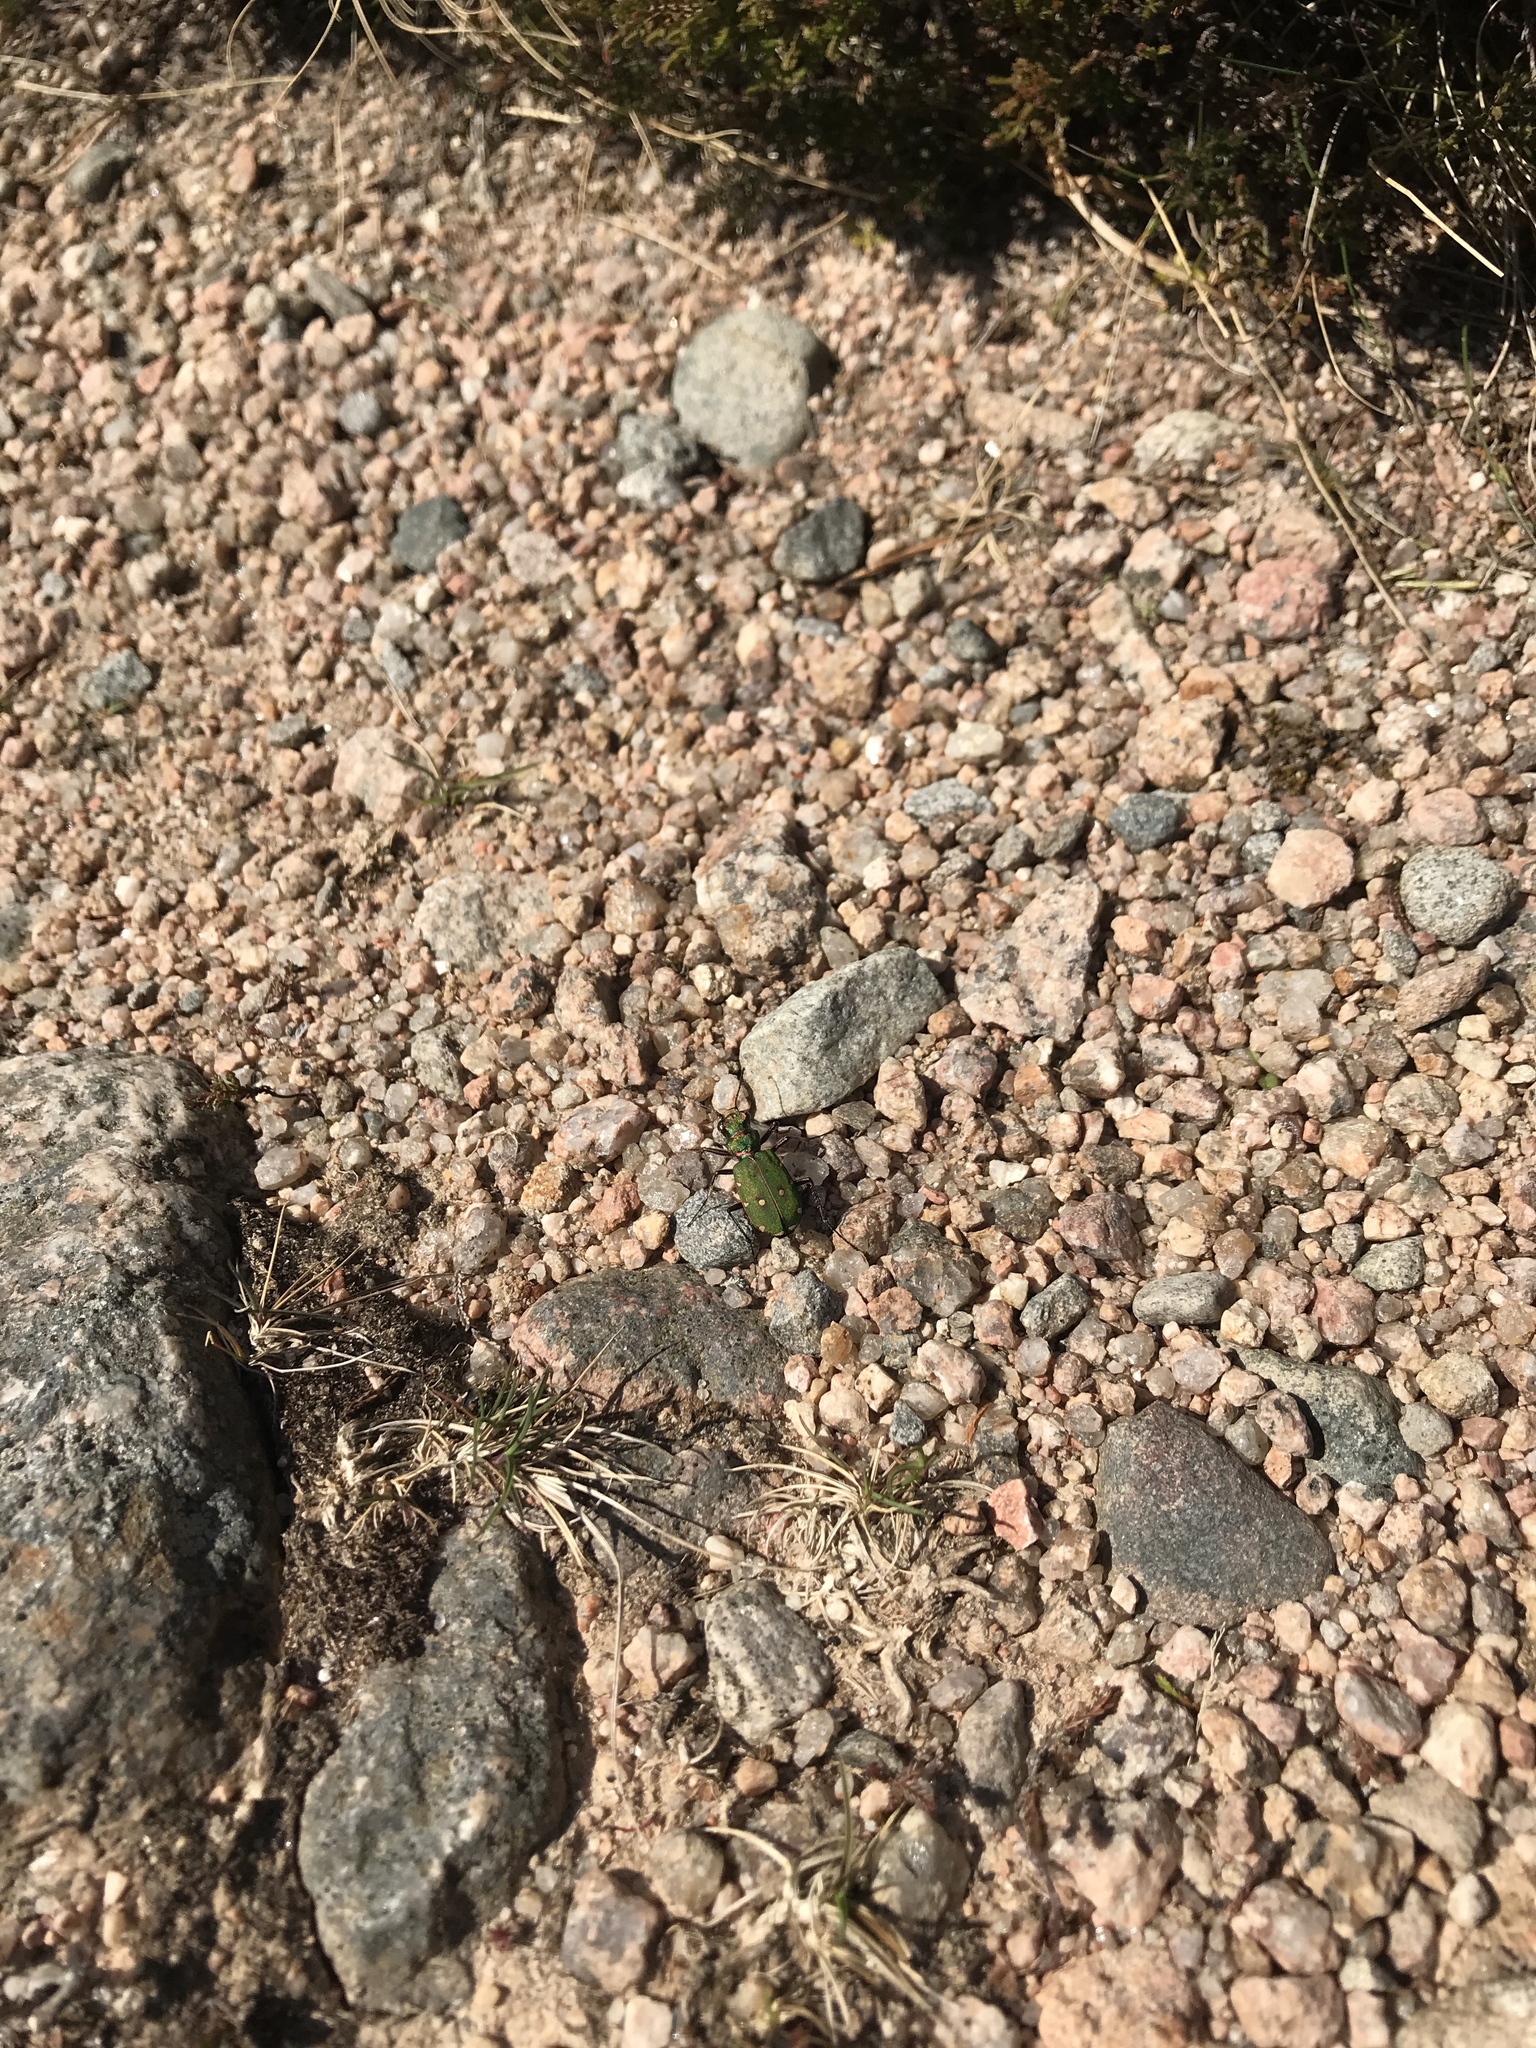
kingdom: Animalia
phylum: Arthropoda
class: Insecta
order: Coleoptera
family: Carabidae
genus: Cicindela
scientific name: Cicindela campestris
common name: Common tiger beetle
